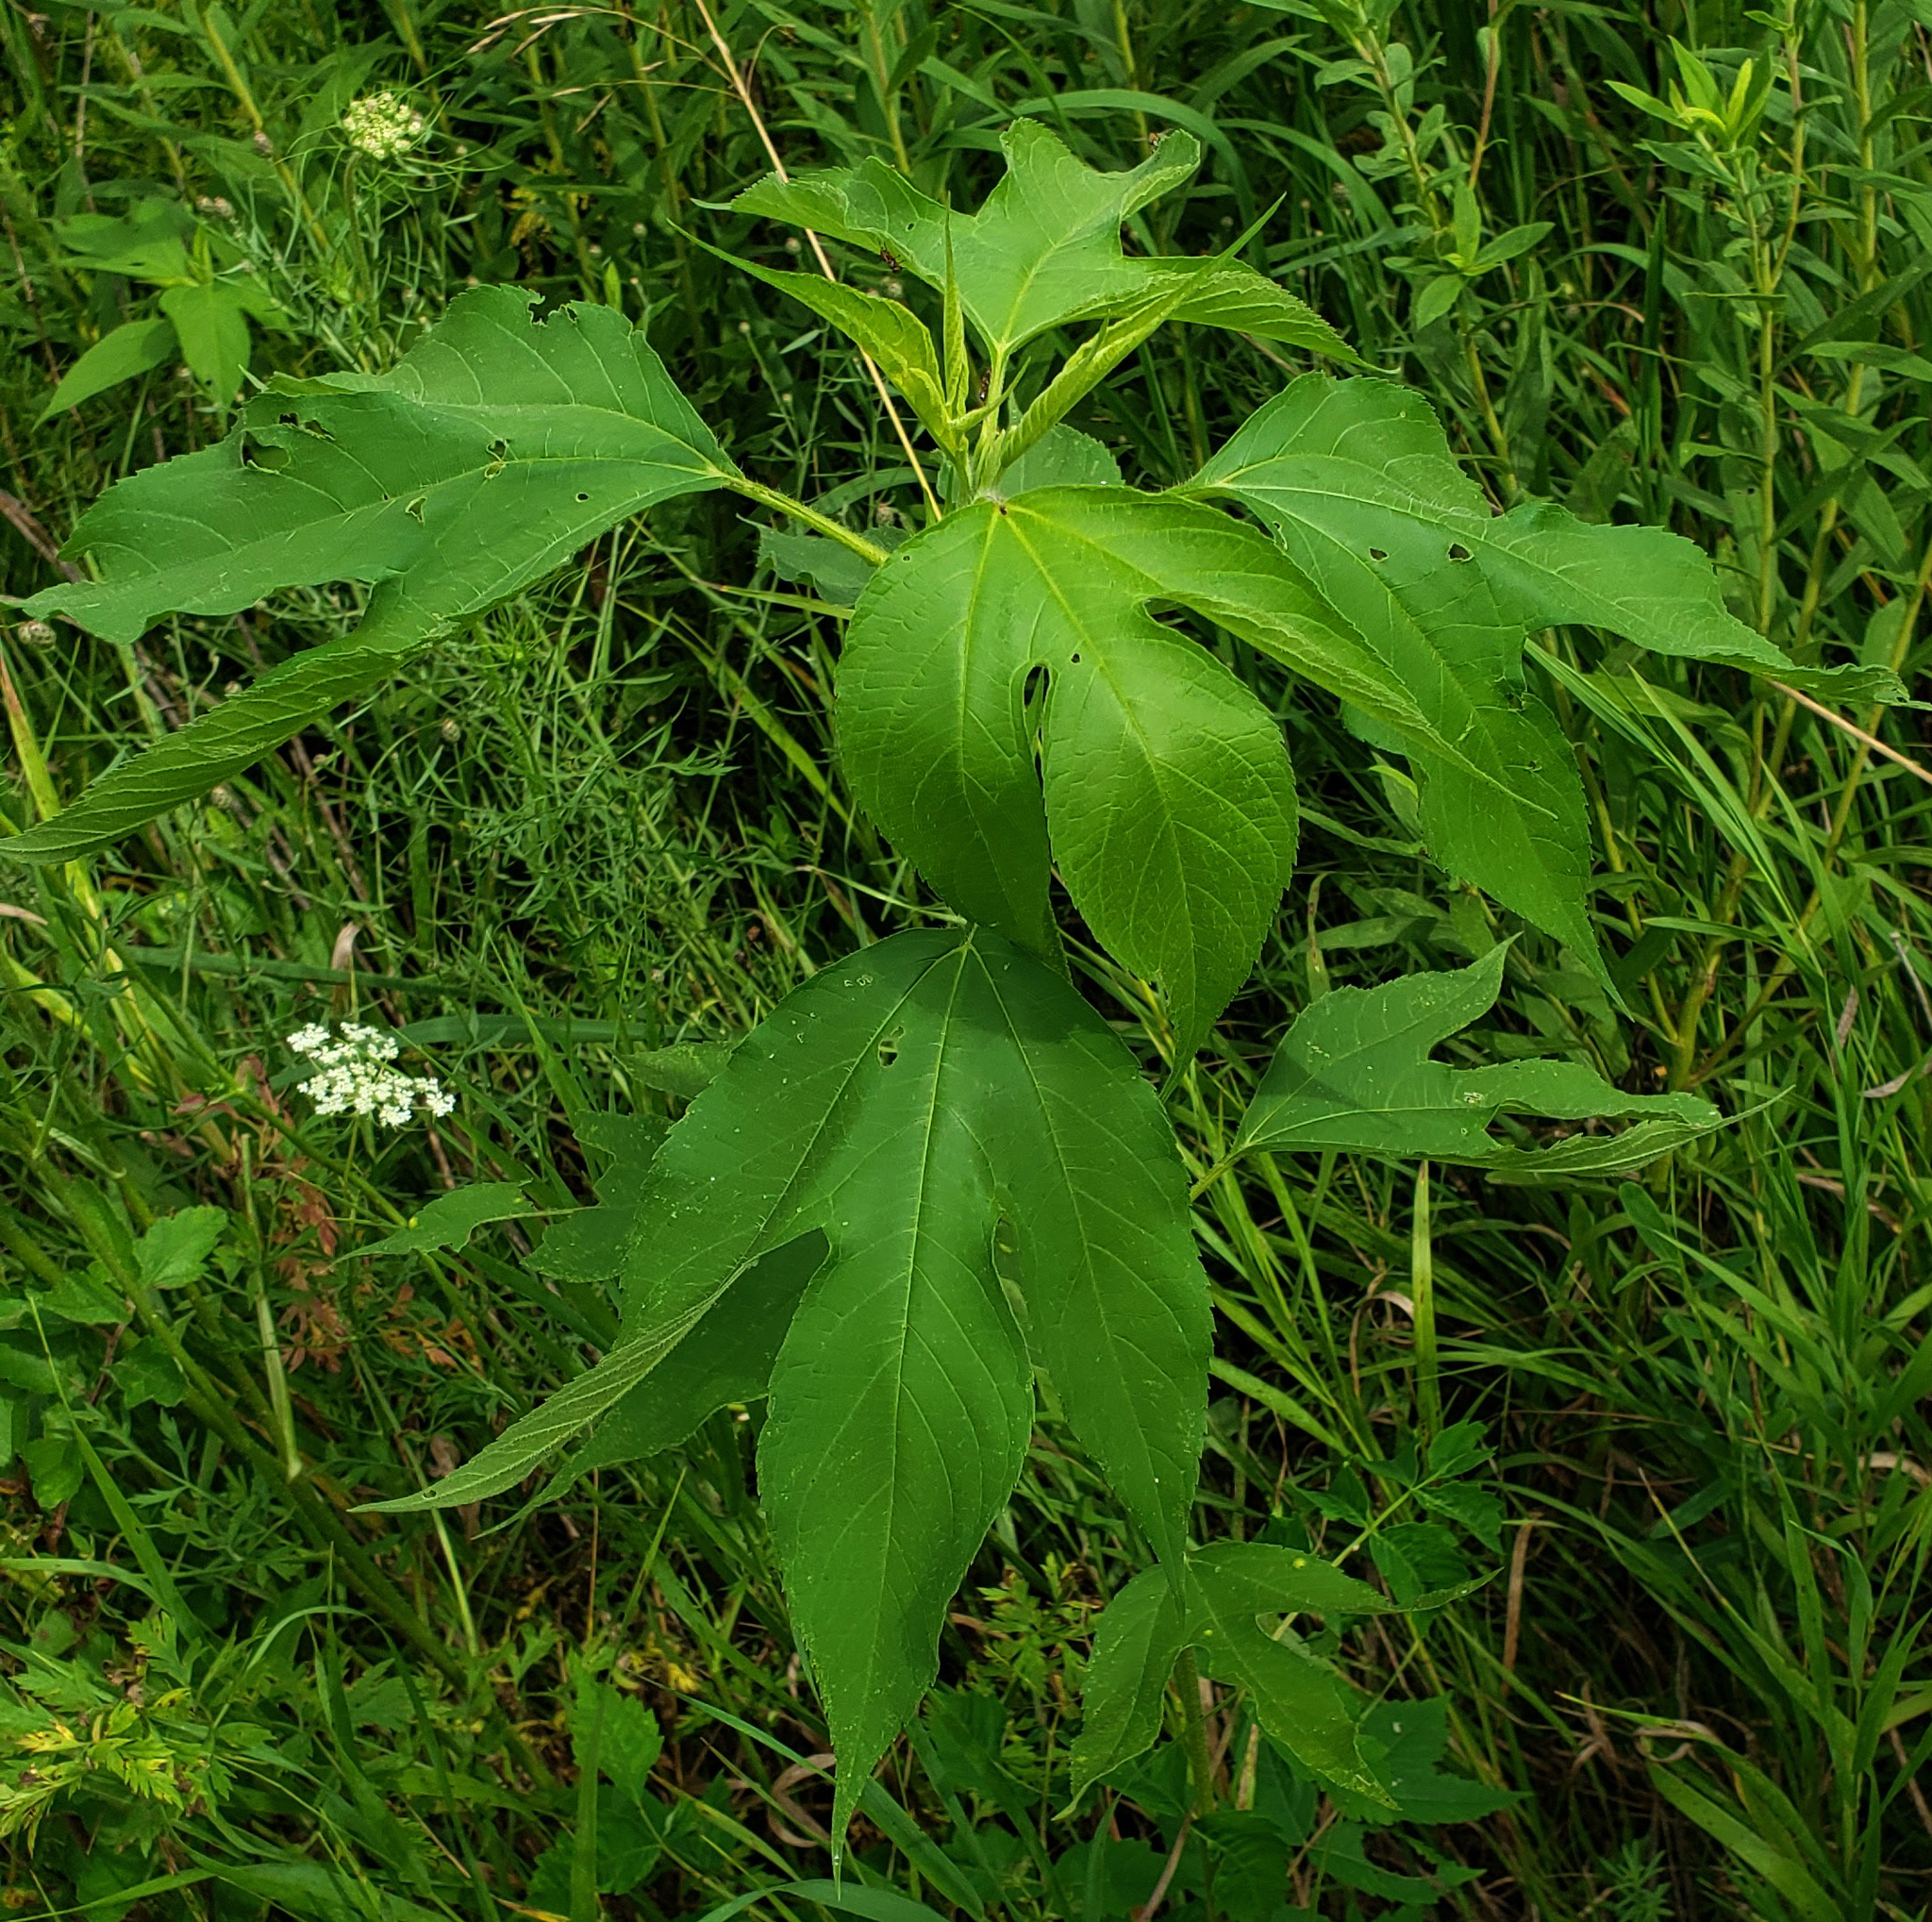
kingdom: Plantae
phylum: Tracheophyta
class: Magnoliopsida
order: Asterales
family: Asteraceae
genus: Ambrosia
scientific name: Ambrosia trifida
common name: Giant ragweed
